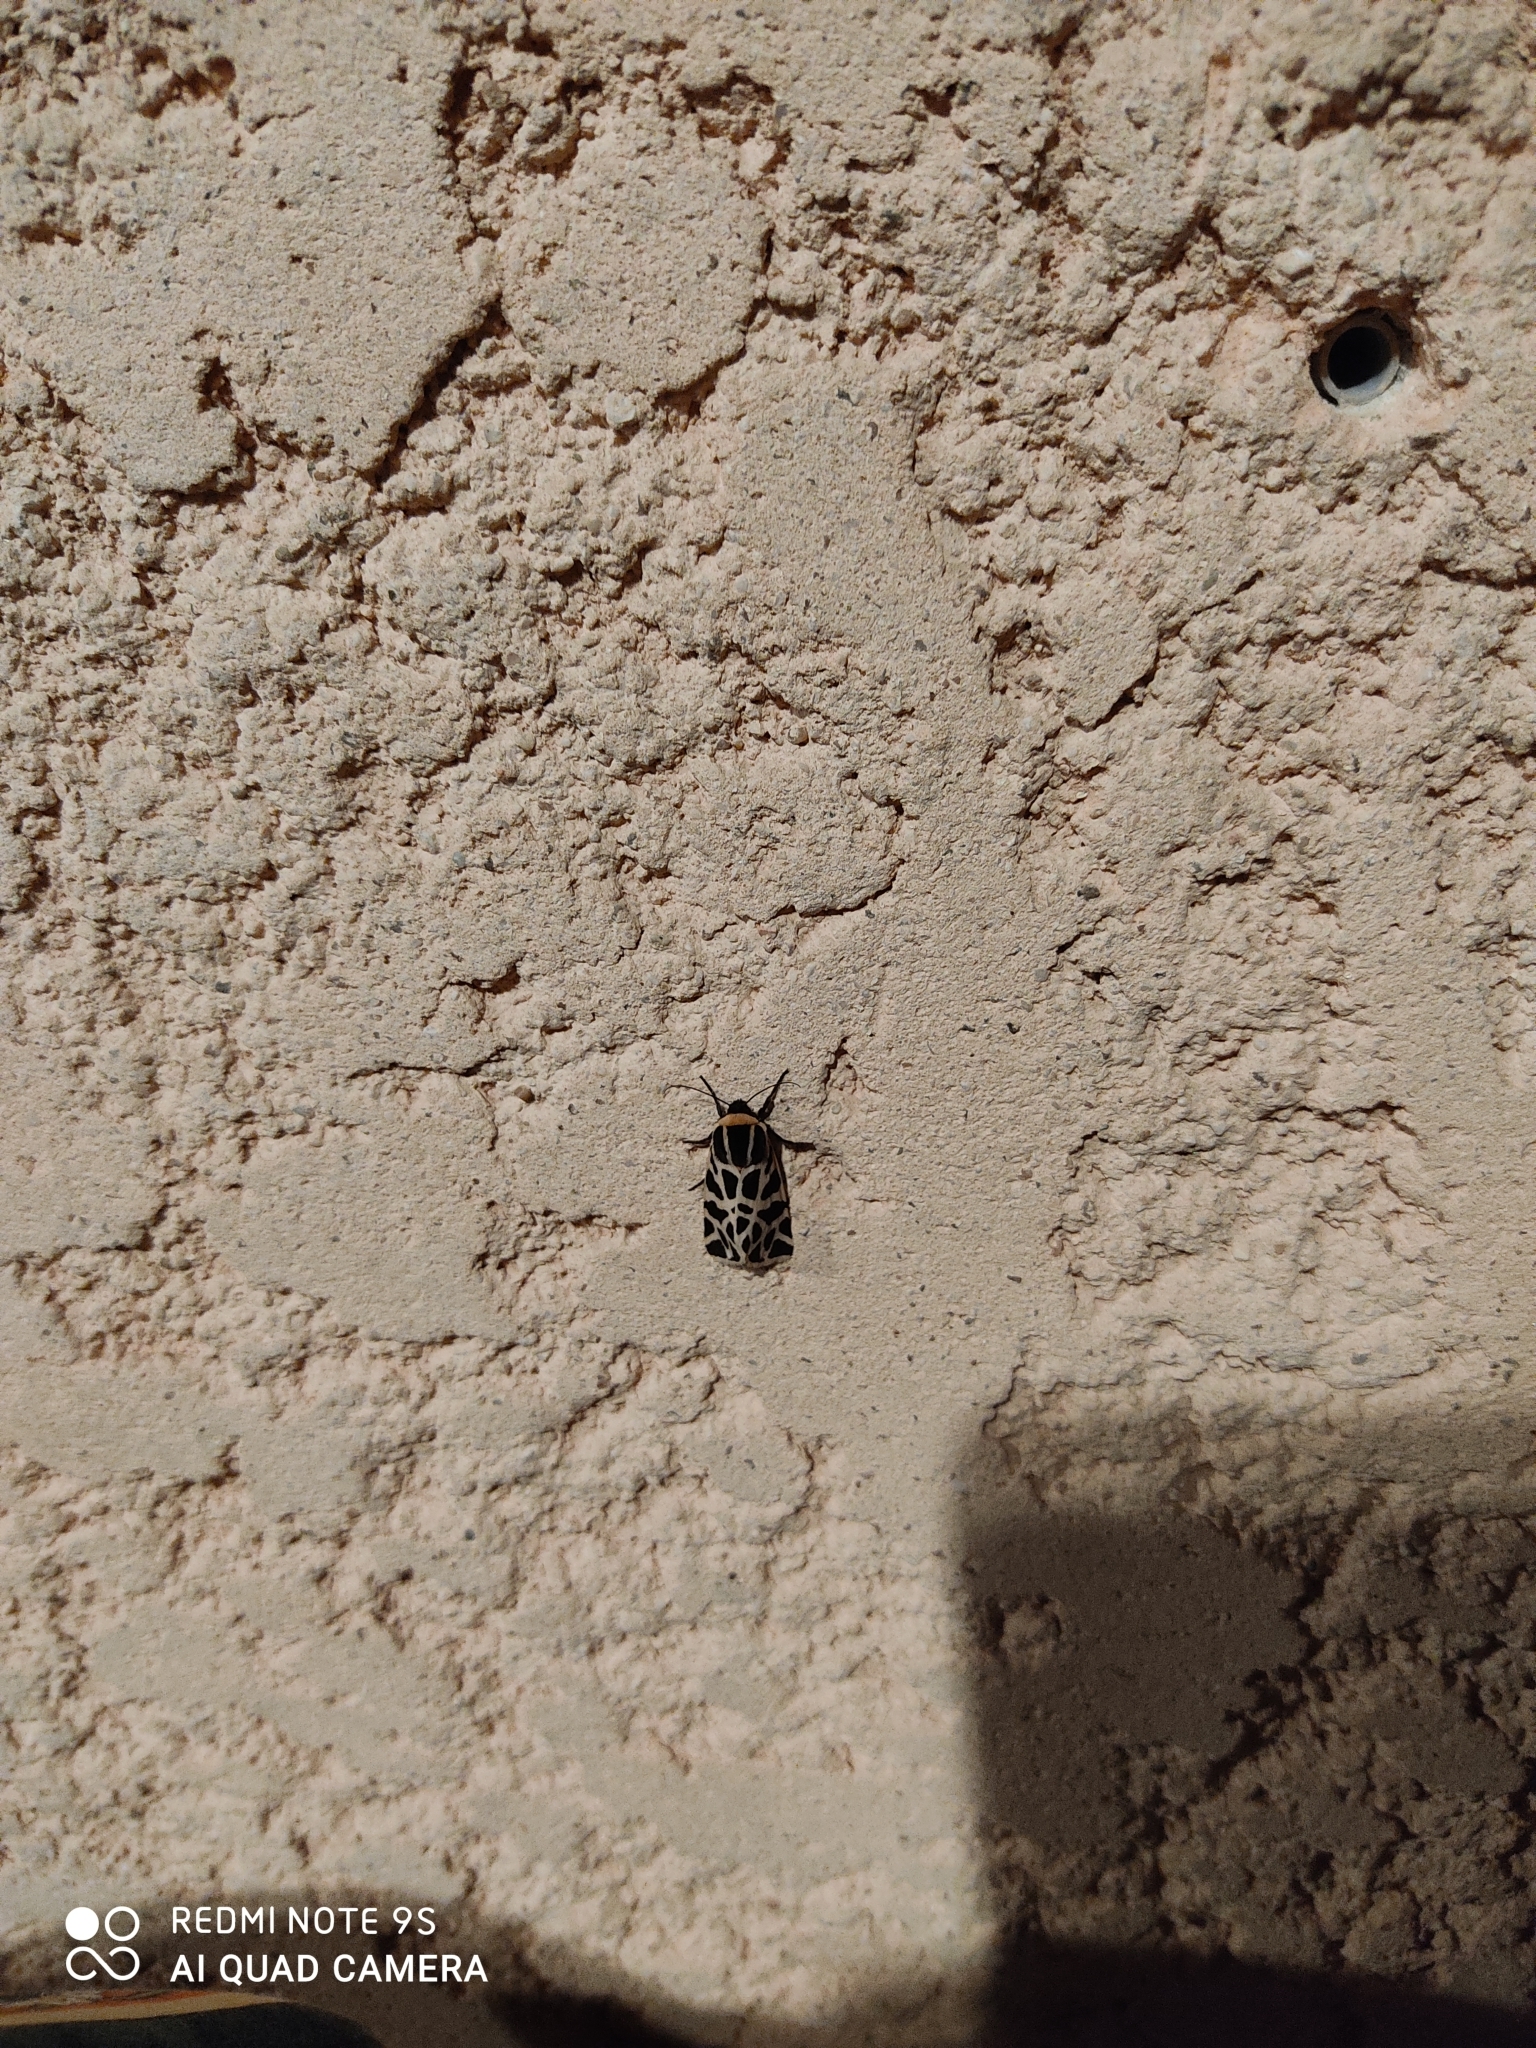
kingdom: Animalia
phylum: Arthropoda
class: Insecta
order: Lepidoptera
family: Erebidae
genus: Cymbalophora
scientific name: Cymbalophora pudica
